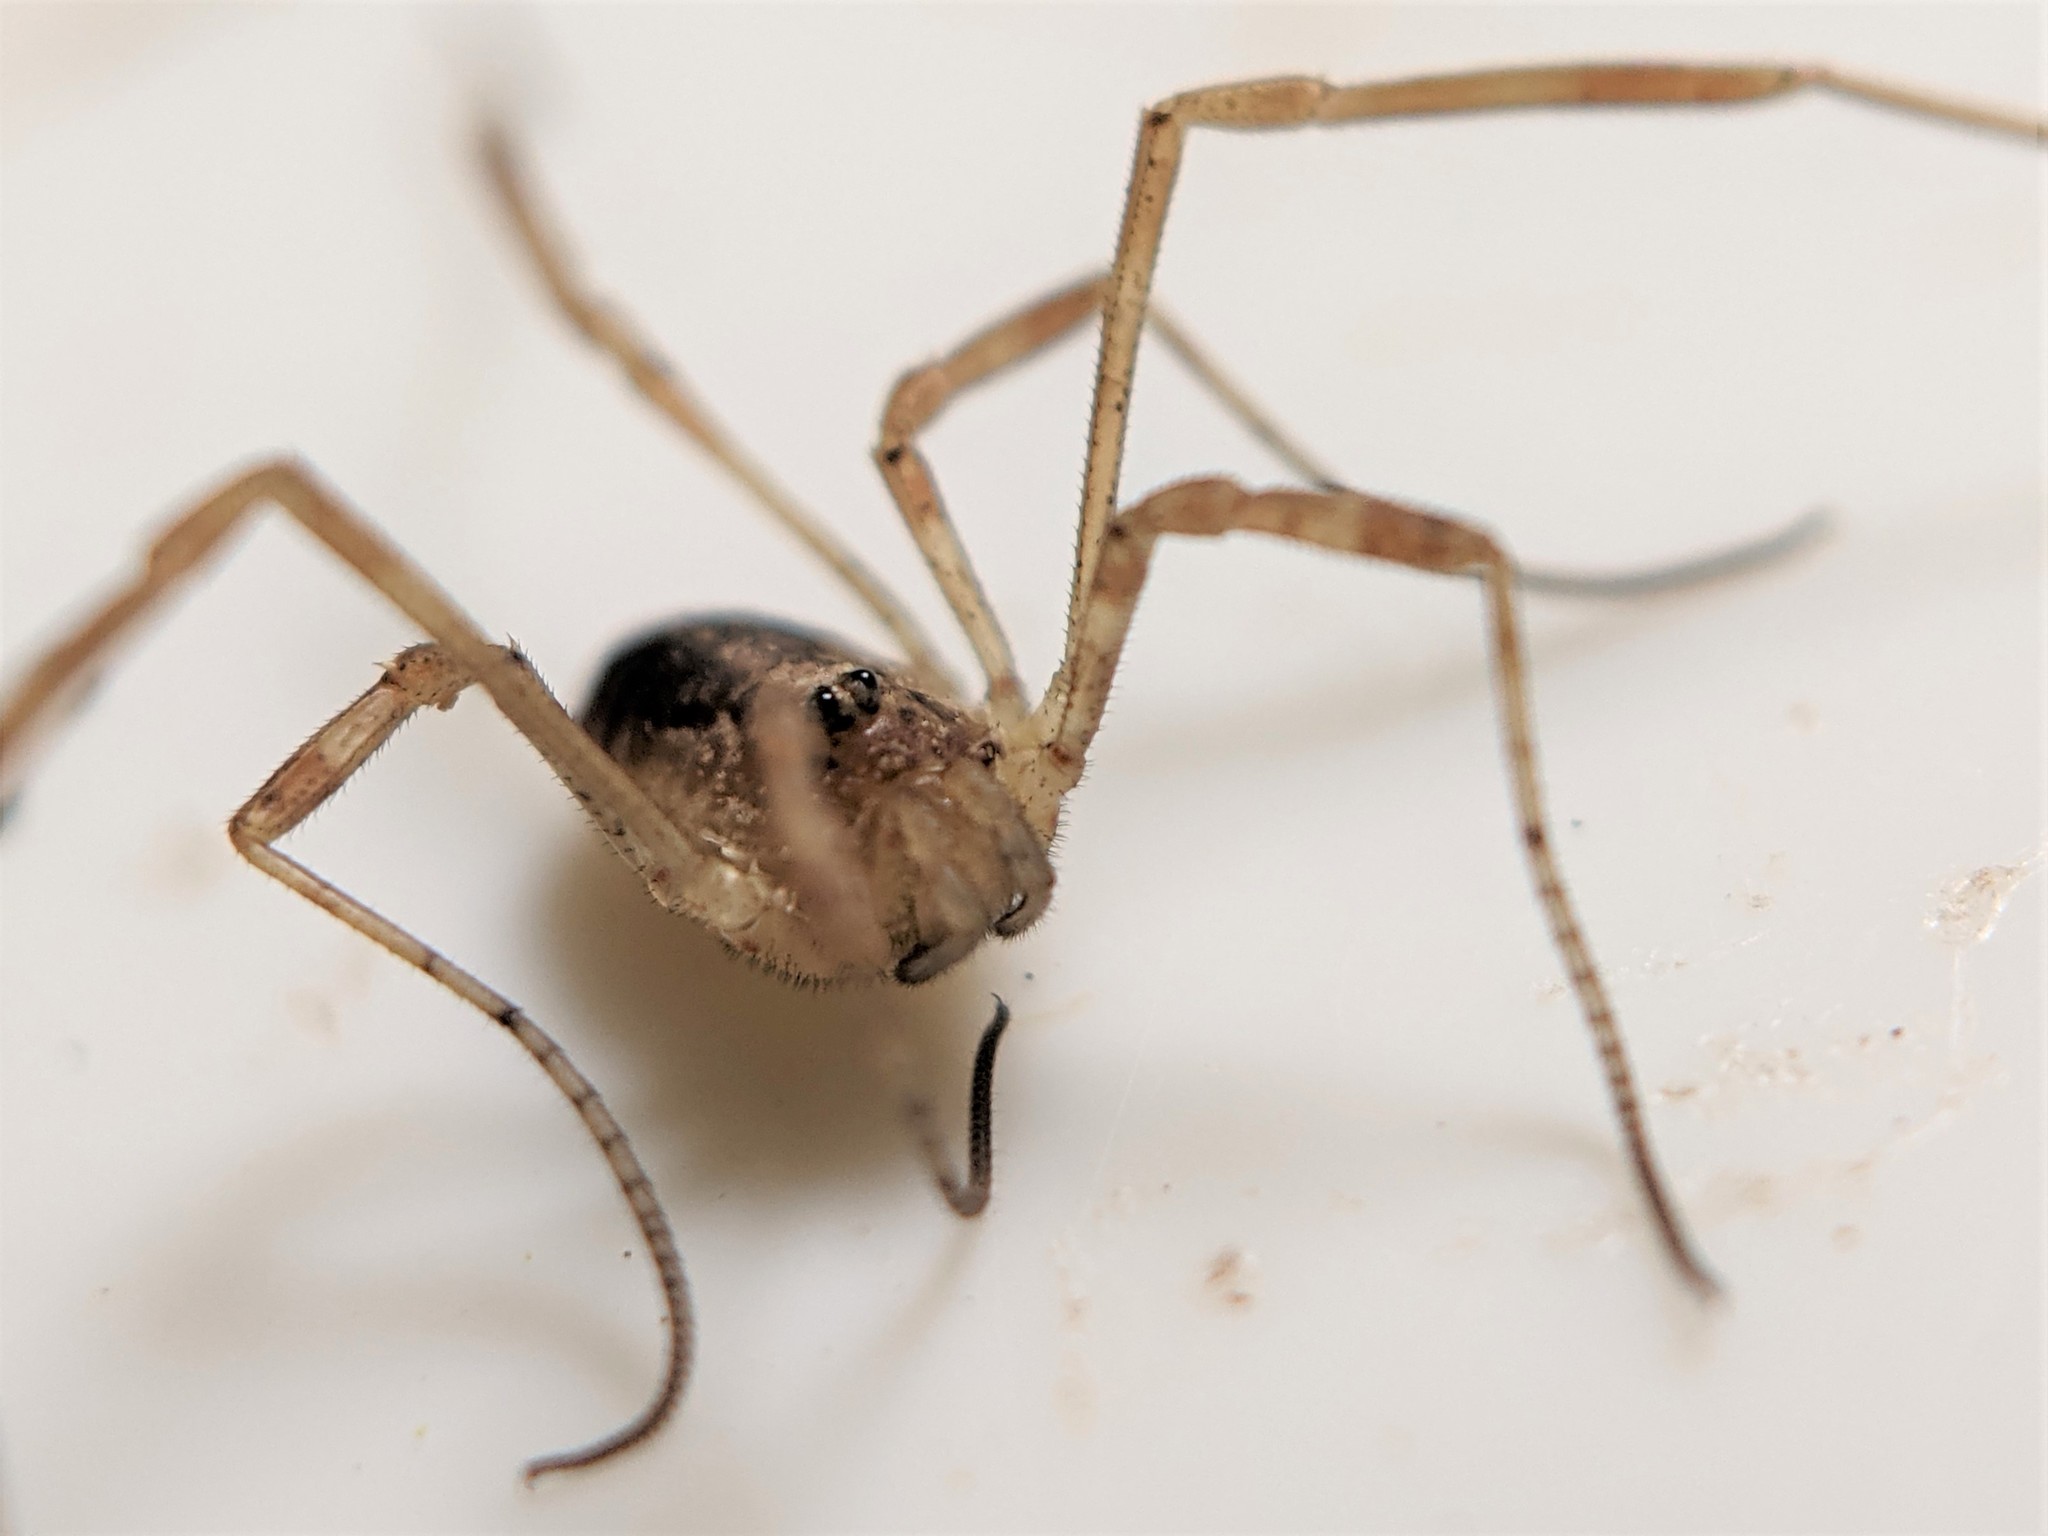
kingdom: Animalia
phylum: Arthropoda
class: Arachnida
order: Opiliones
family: Phalangiidae
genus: Paroligolophus
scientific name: Paroligolophus agrestis
